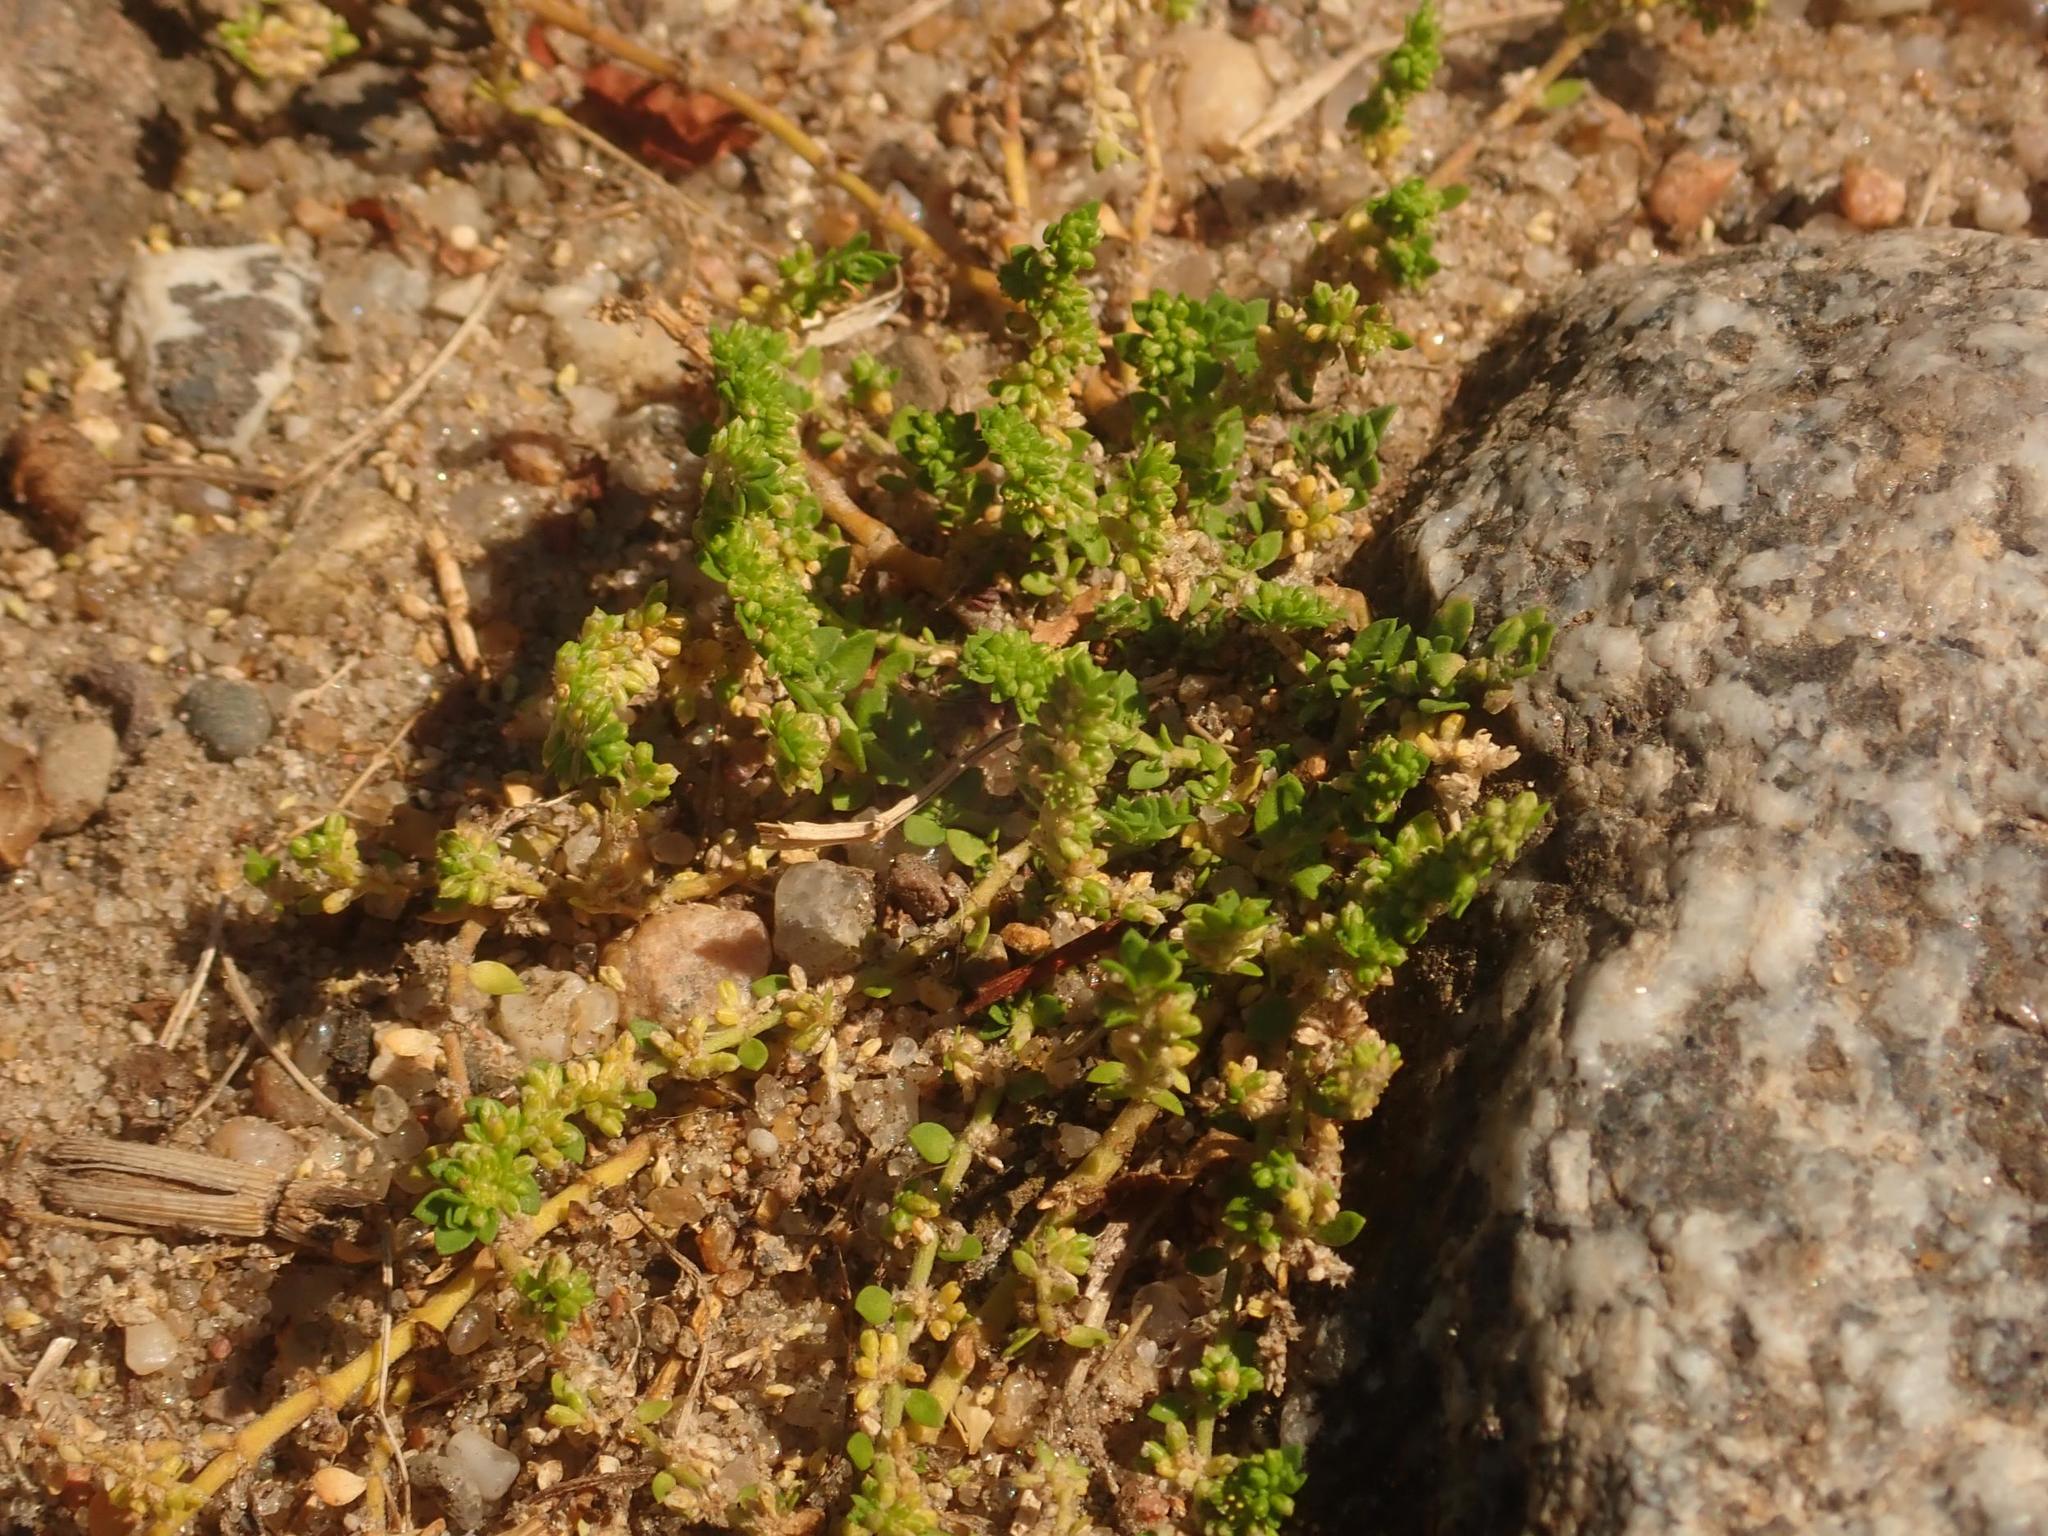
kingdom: Plantae
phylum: Tracheophyta
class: Magnoliopsida
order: Caryophyllales
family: Caryophyllaceae
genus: Herniaria
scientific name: Herniaria glabra
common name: Smooth rupturewort
